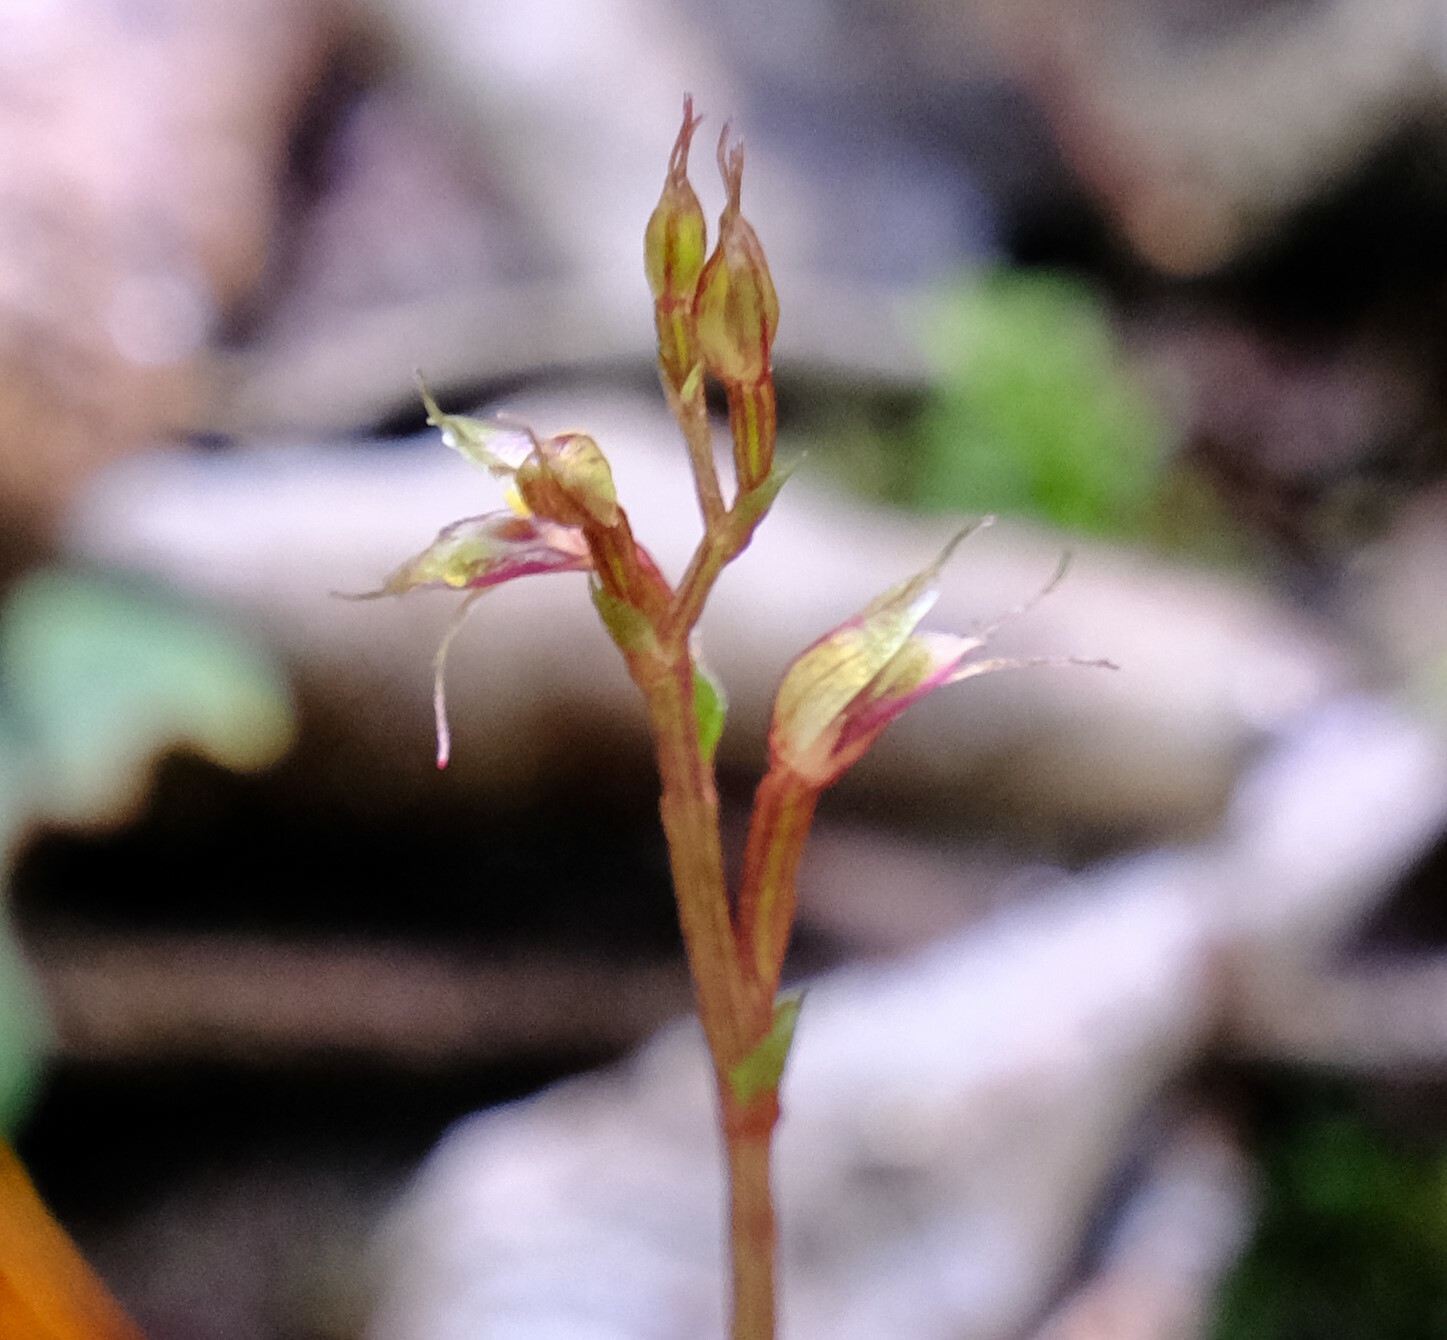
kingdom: Plantae
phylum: Tracheophyta
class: Liliopsida
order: Asparagales
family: Orchidaceae
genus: Acianthus
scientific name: Acianthus fornicatus
